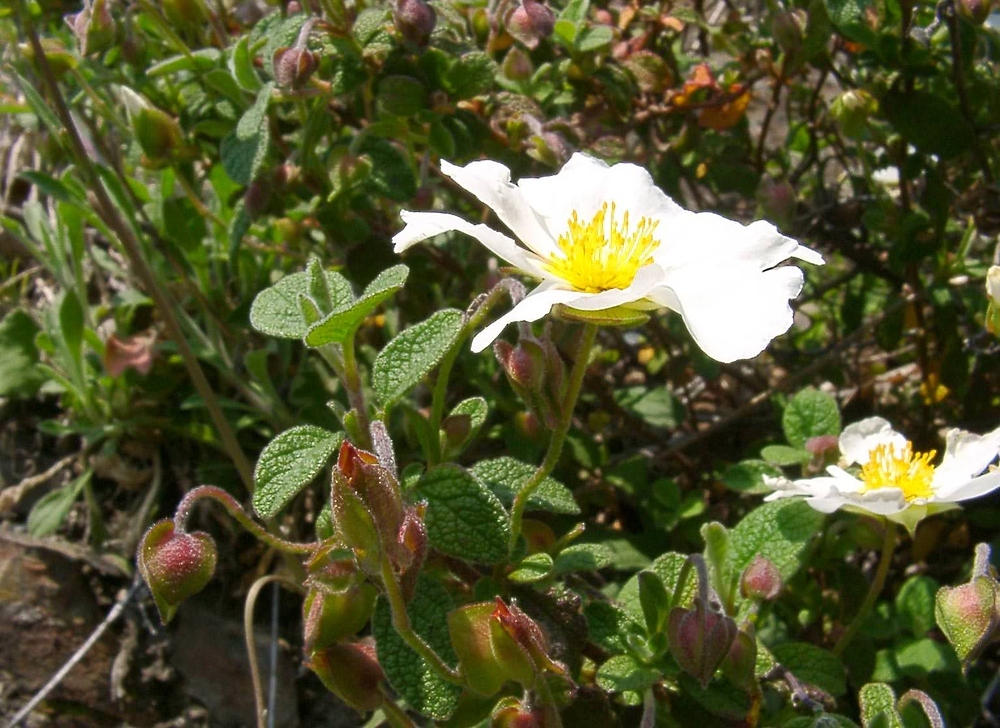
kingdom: Plantae
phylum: Tracheophyta
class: Magnoliopsida
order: Malvales
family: Cistaceae
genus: Cistus
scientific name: Cistus salviifolius
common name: Salvia cistus
